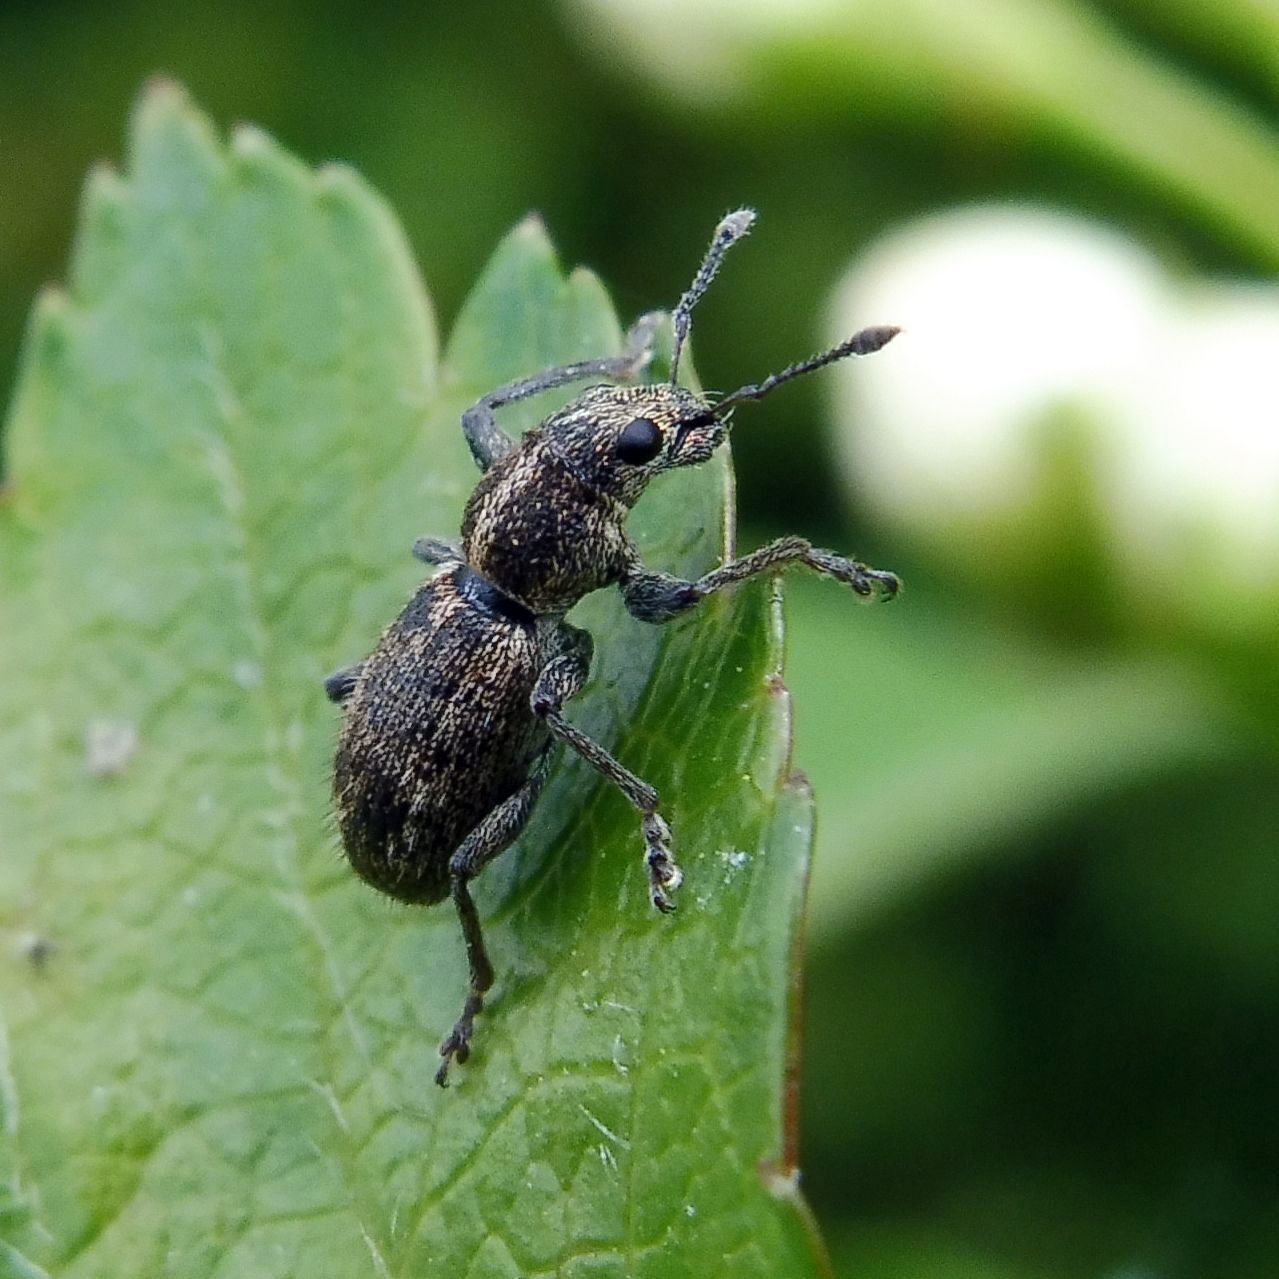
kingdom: Animalia
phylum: Arthropoda
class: Insecta
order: Coleoptera
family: Curculionidae
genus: Andrion
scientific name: Andrion regensteinense
